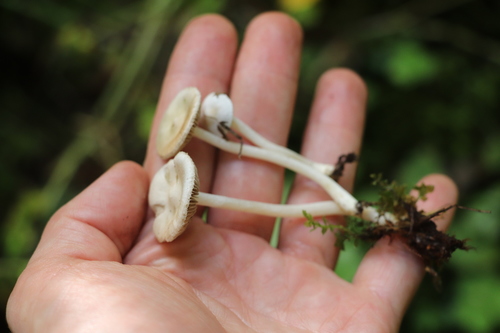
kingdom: Fungi
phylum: Basidiomycota
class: Agaricomycetes
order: Agaricales
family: Inocybaceae
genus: Inocybe
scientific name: Inocybe geophylla
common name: White fibrecap
